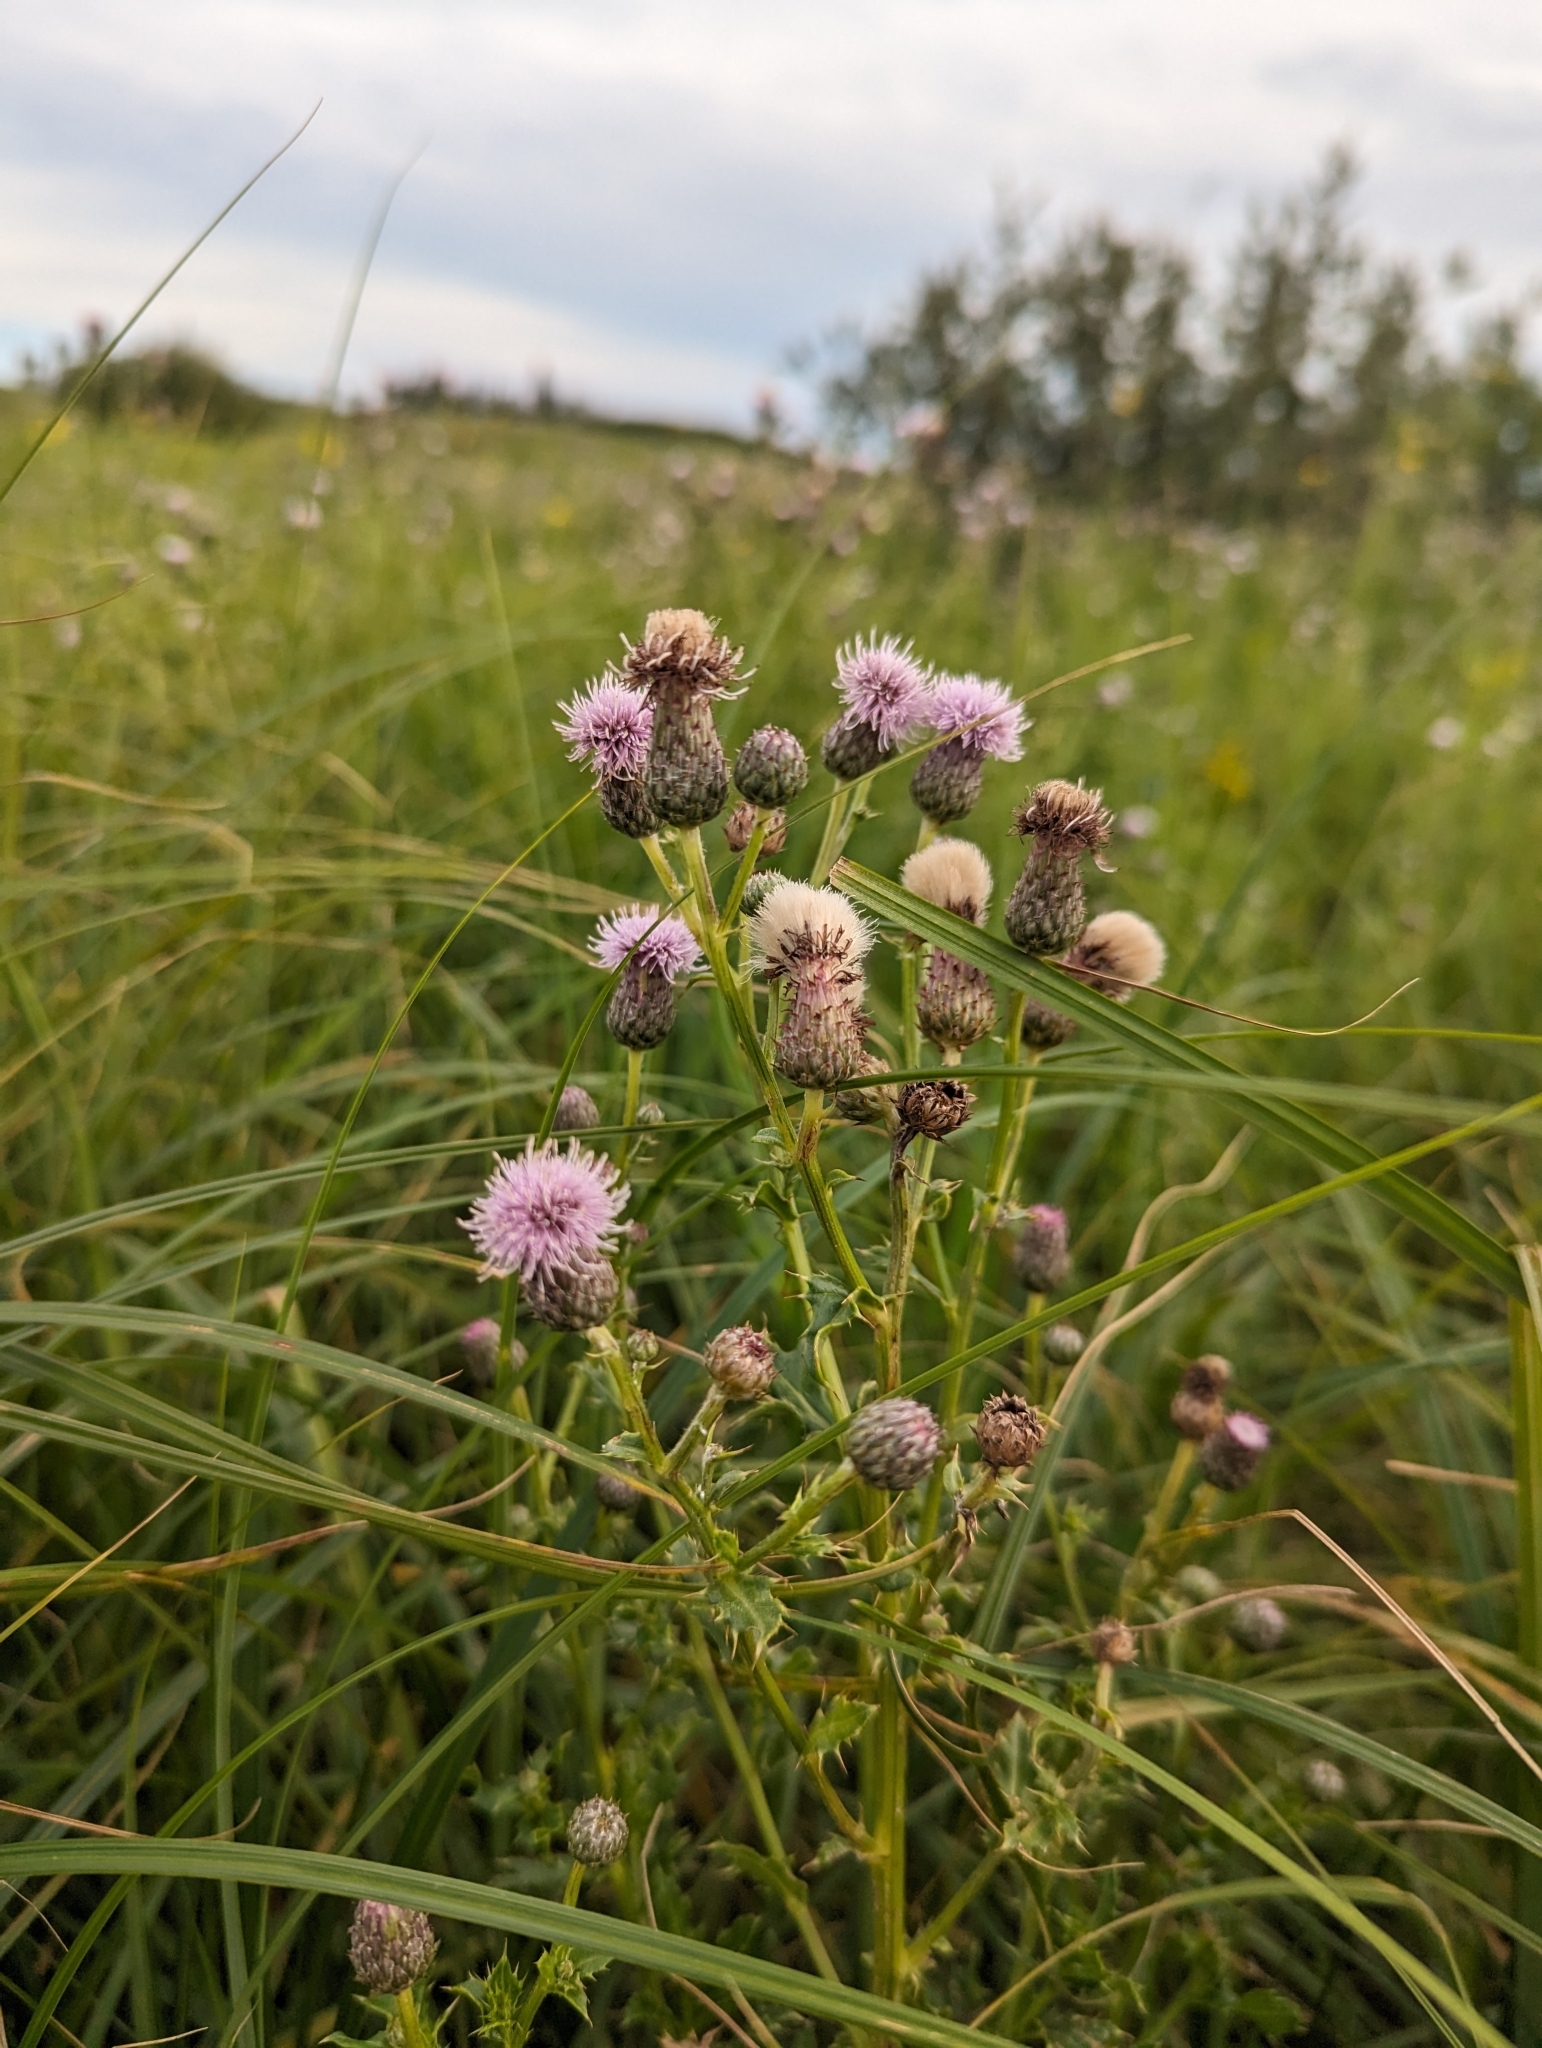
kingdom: Plantae
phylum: Tracheophyta
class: Magnoliopsida
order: Asterales
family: Asteraceae
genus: Cirsium
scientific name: Cirsium arvense
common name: Creeping thistle
